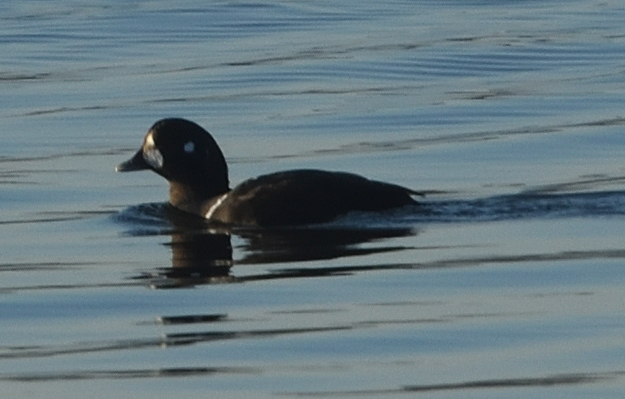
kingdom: Animalia
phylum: Chordata
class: Aves
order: Anseriformes
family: Anatidae
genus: Histrionicus
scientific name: Histrionicus histrionicus
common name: Harlequin duck
